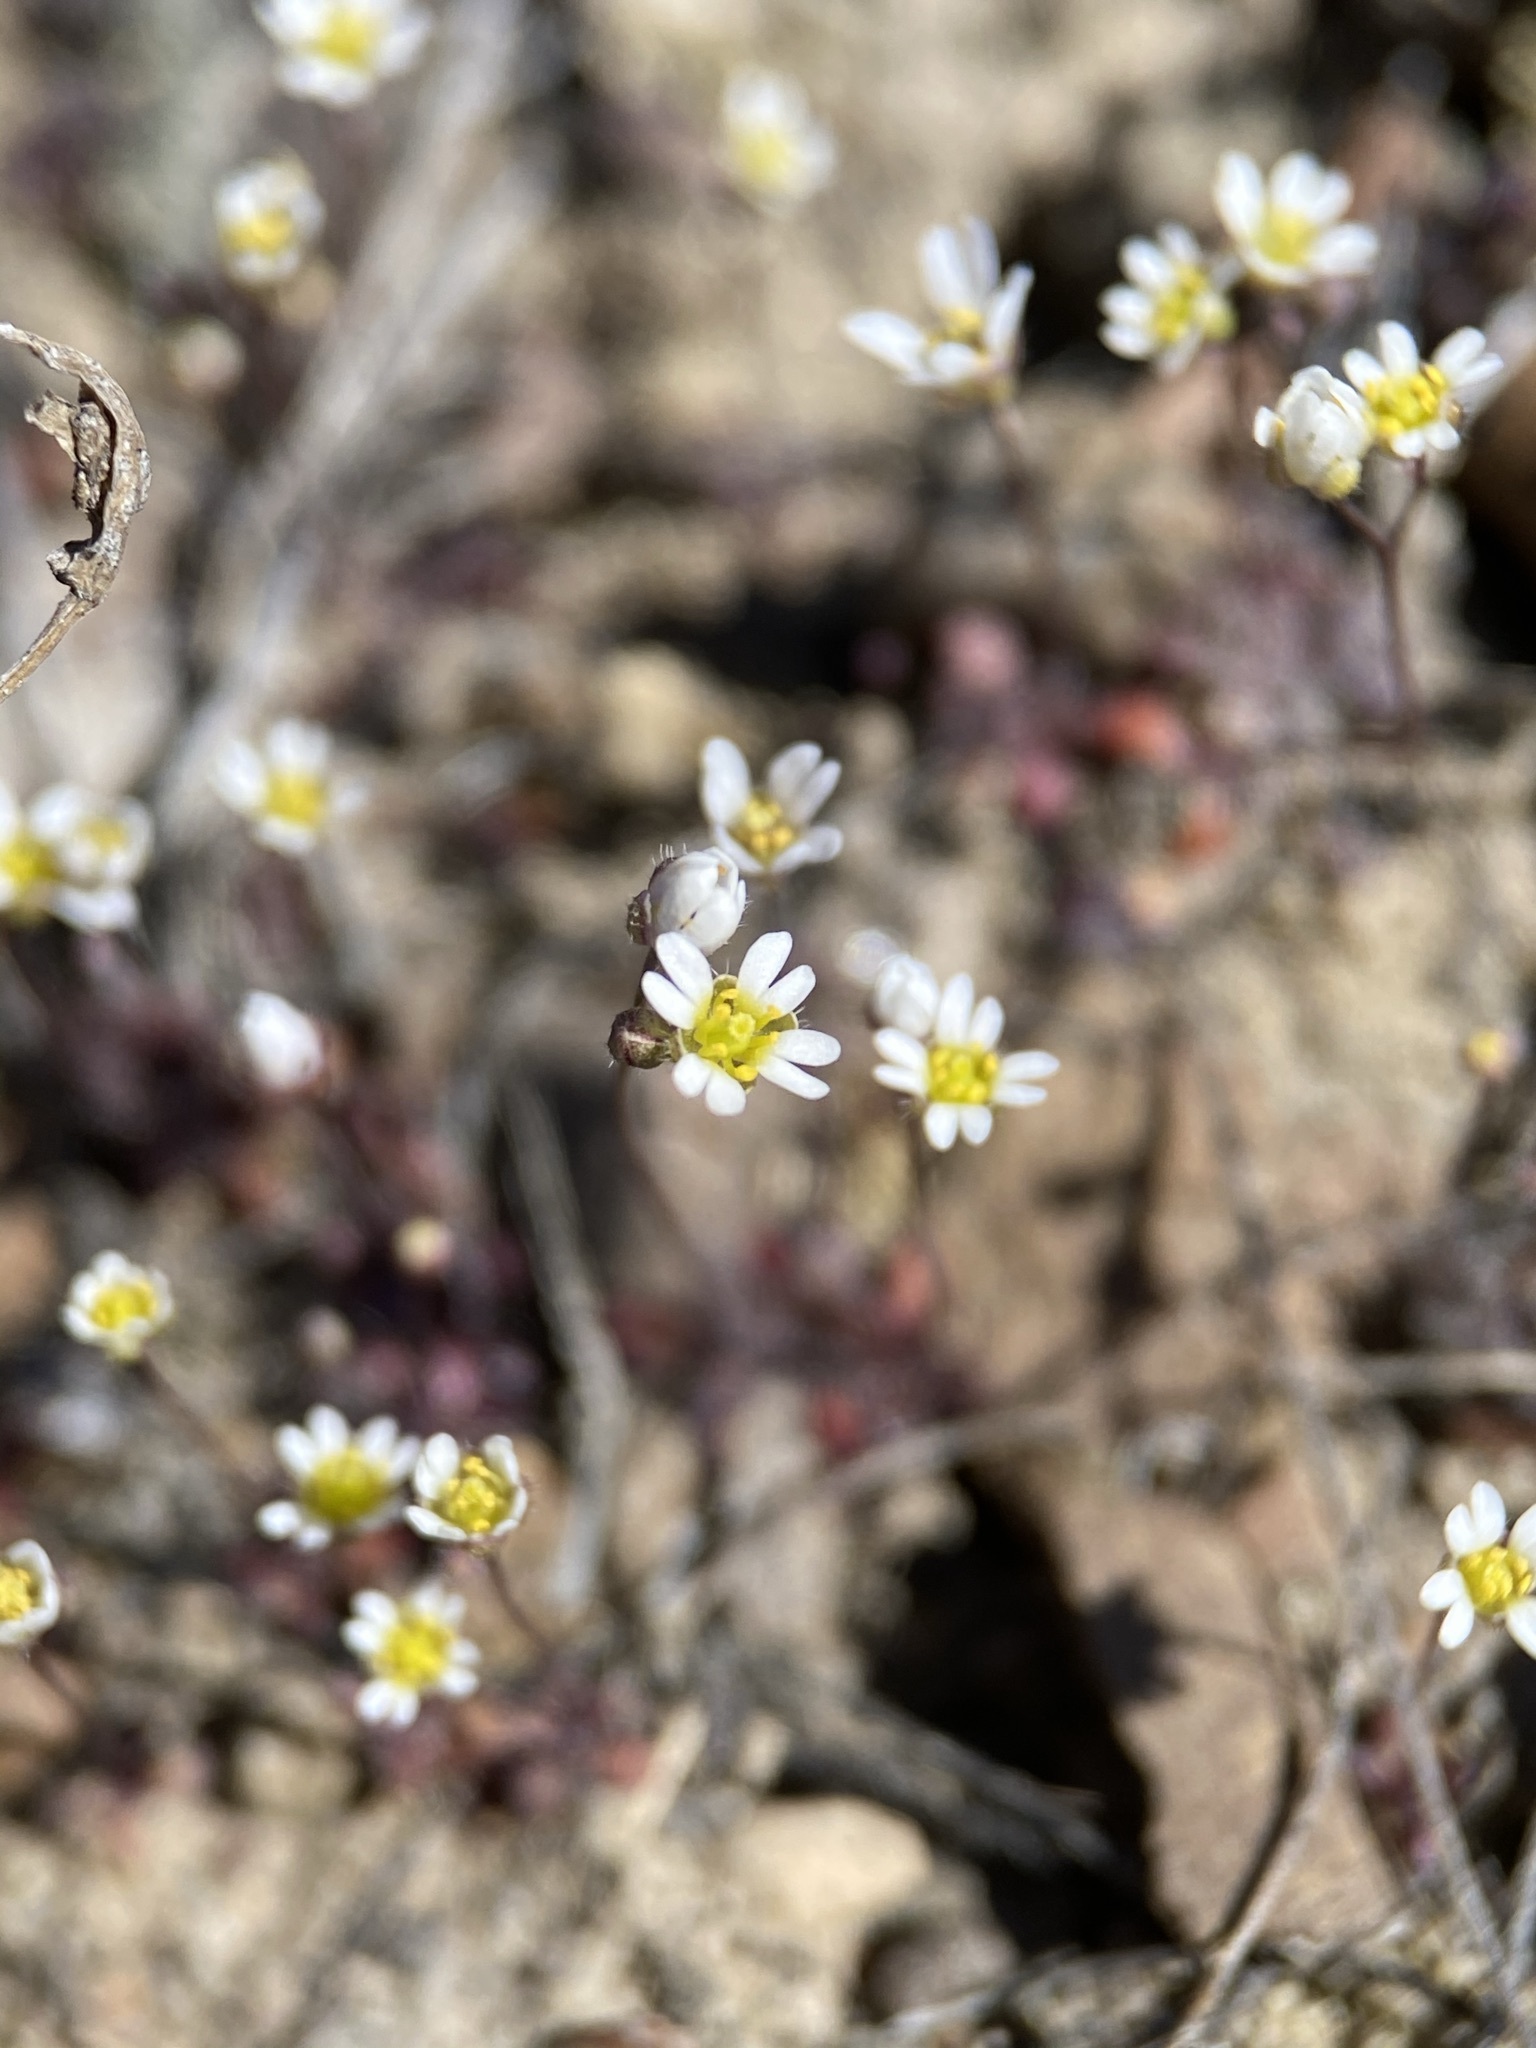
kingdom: Plantae
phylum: Tracheophyta
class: Magnoliopsida
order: Brassicales
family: Brassicaceae
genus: Draba
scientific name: Draba verna
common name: Spring draba
